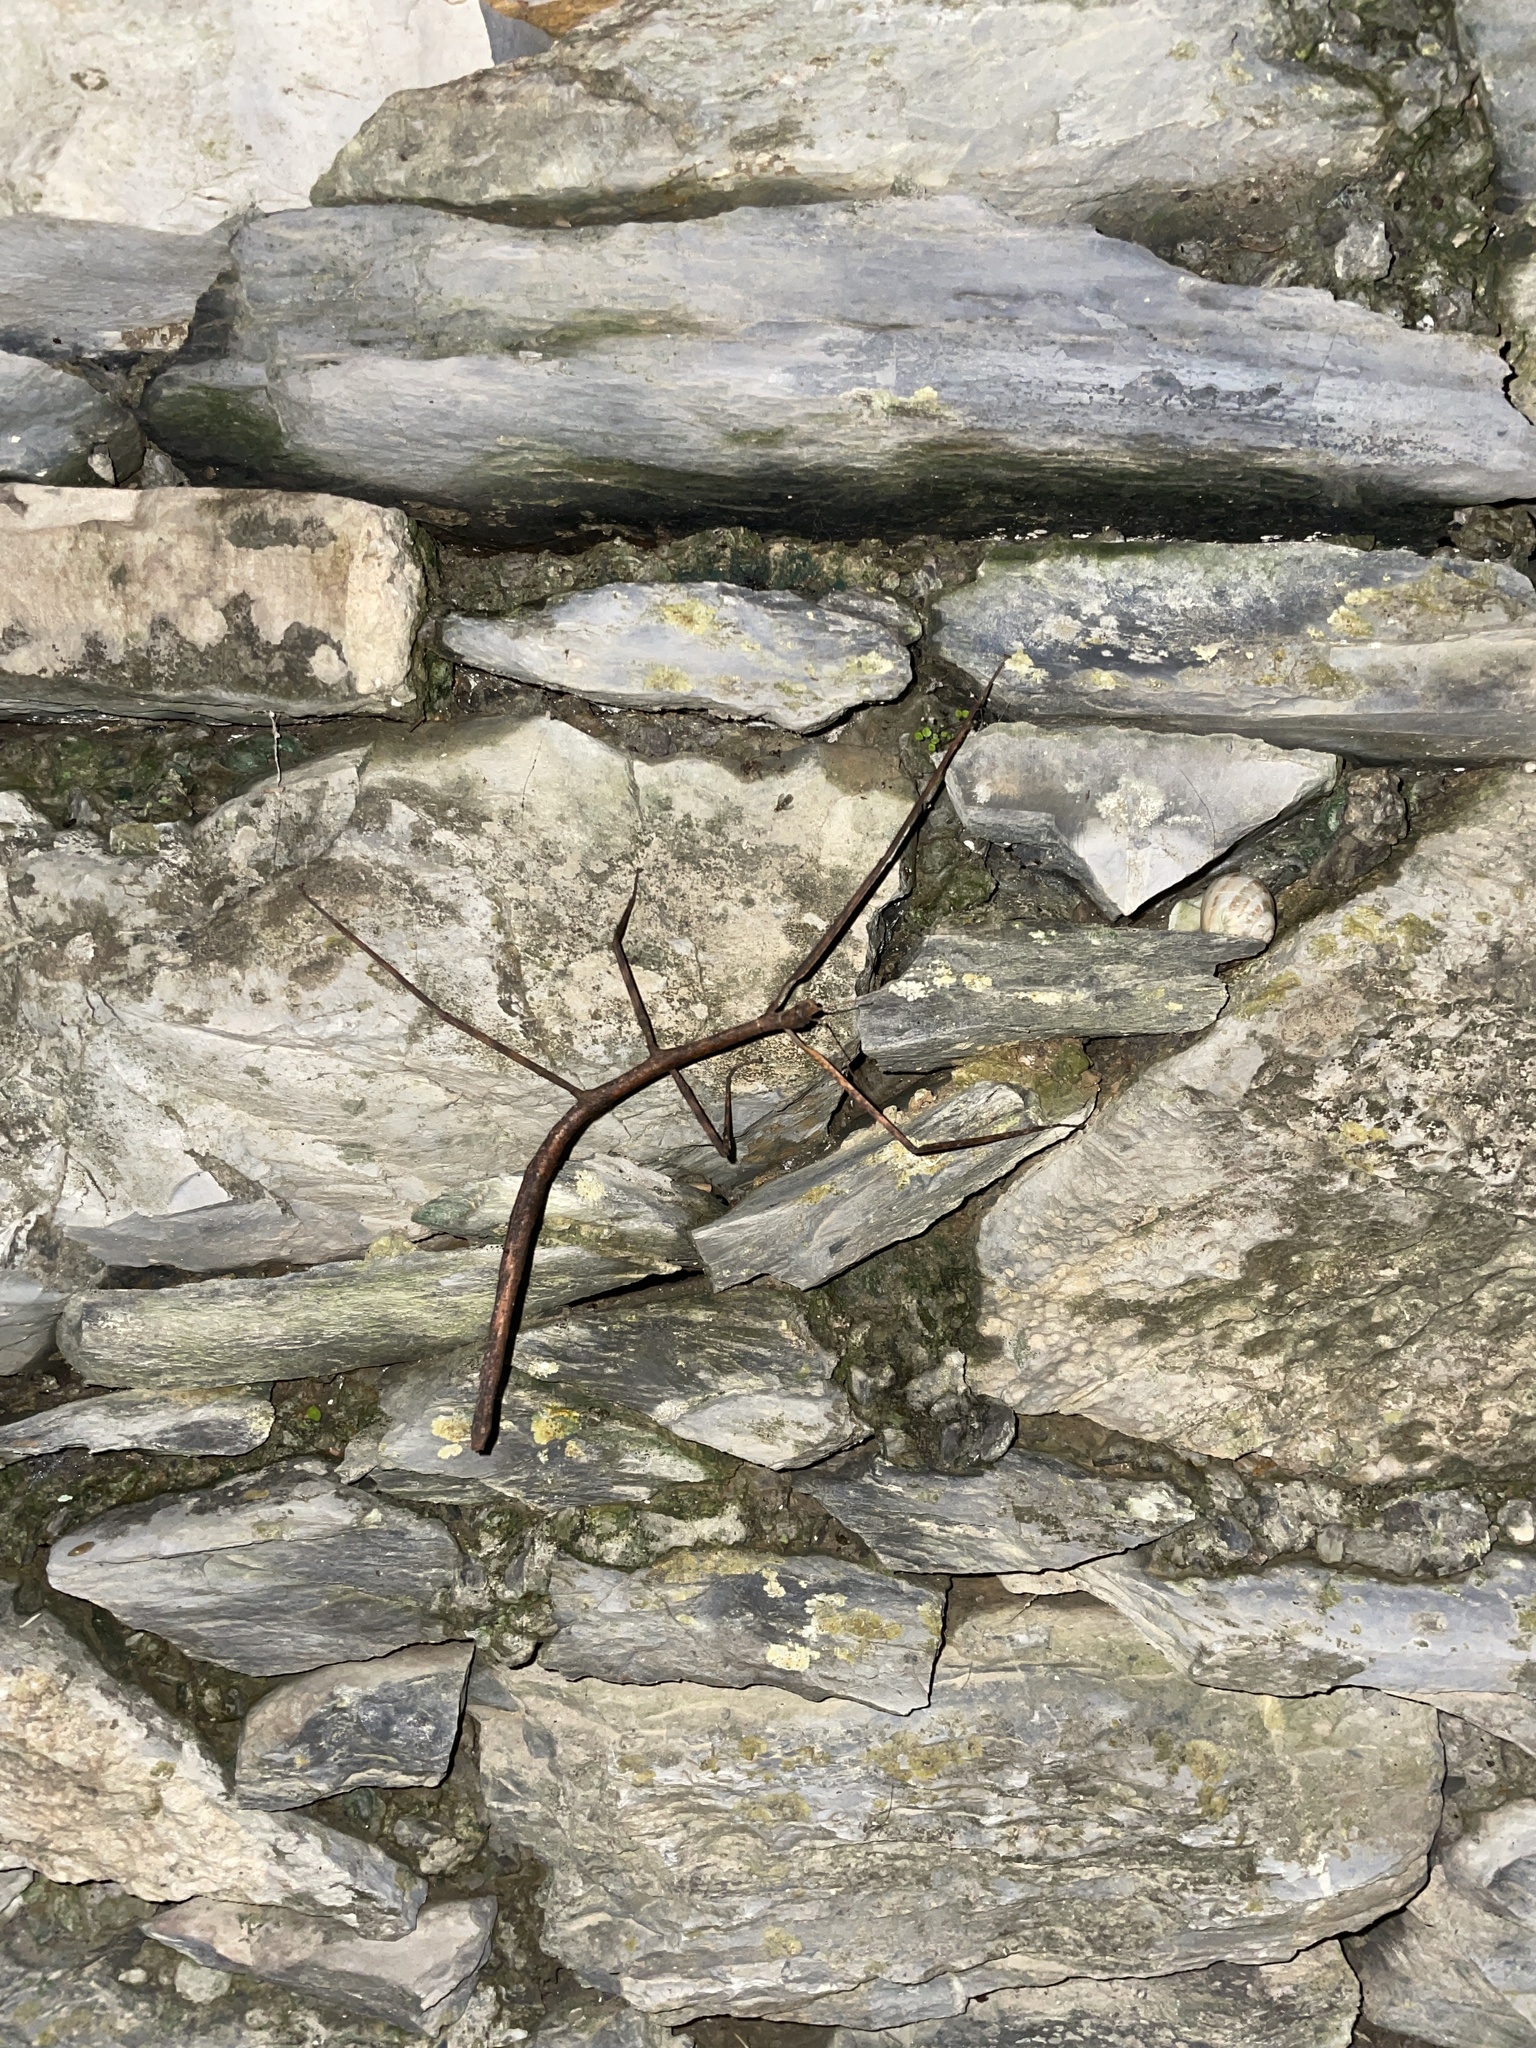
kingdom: Animalia
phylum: Arthropoda
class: Insecta
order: Phasmida
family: Bacillidae
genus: Bacillus
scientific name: Bacillus rossius
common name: Corsican stick-insect
